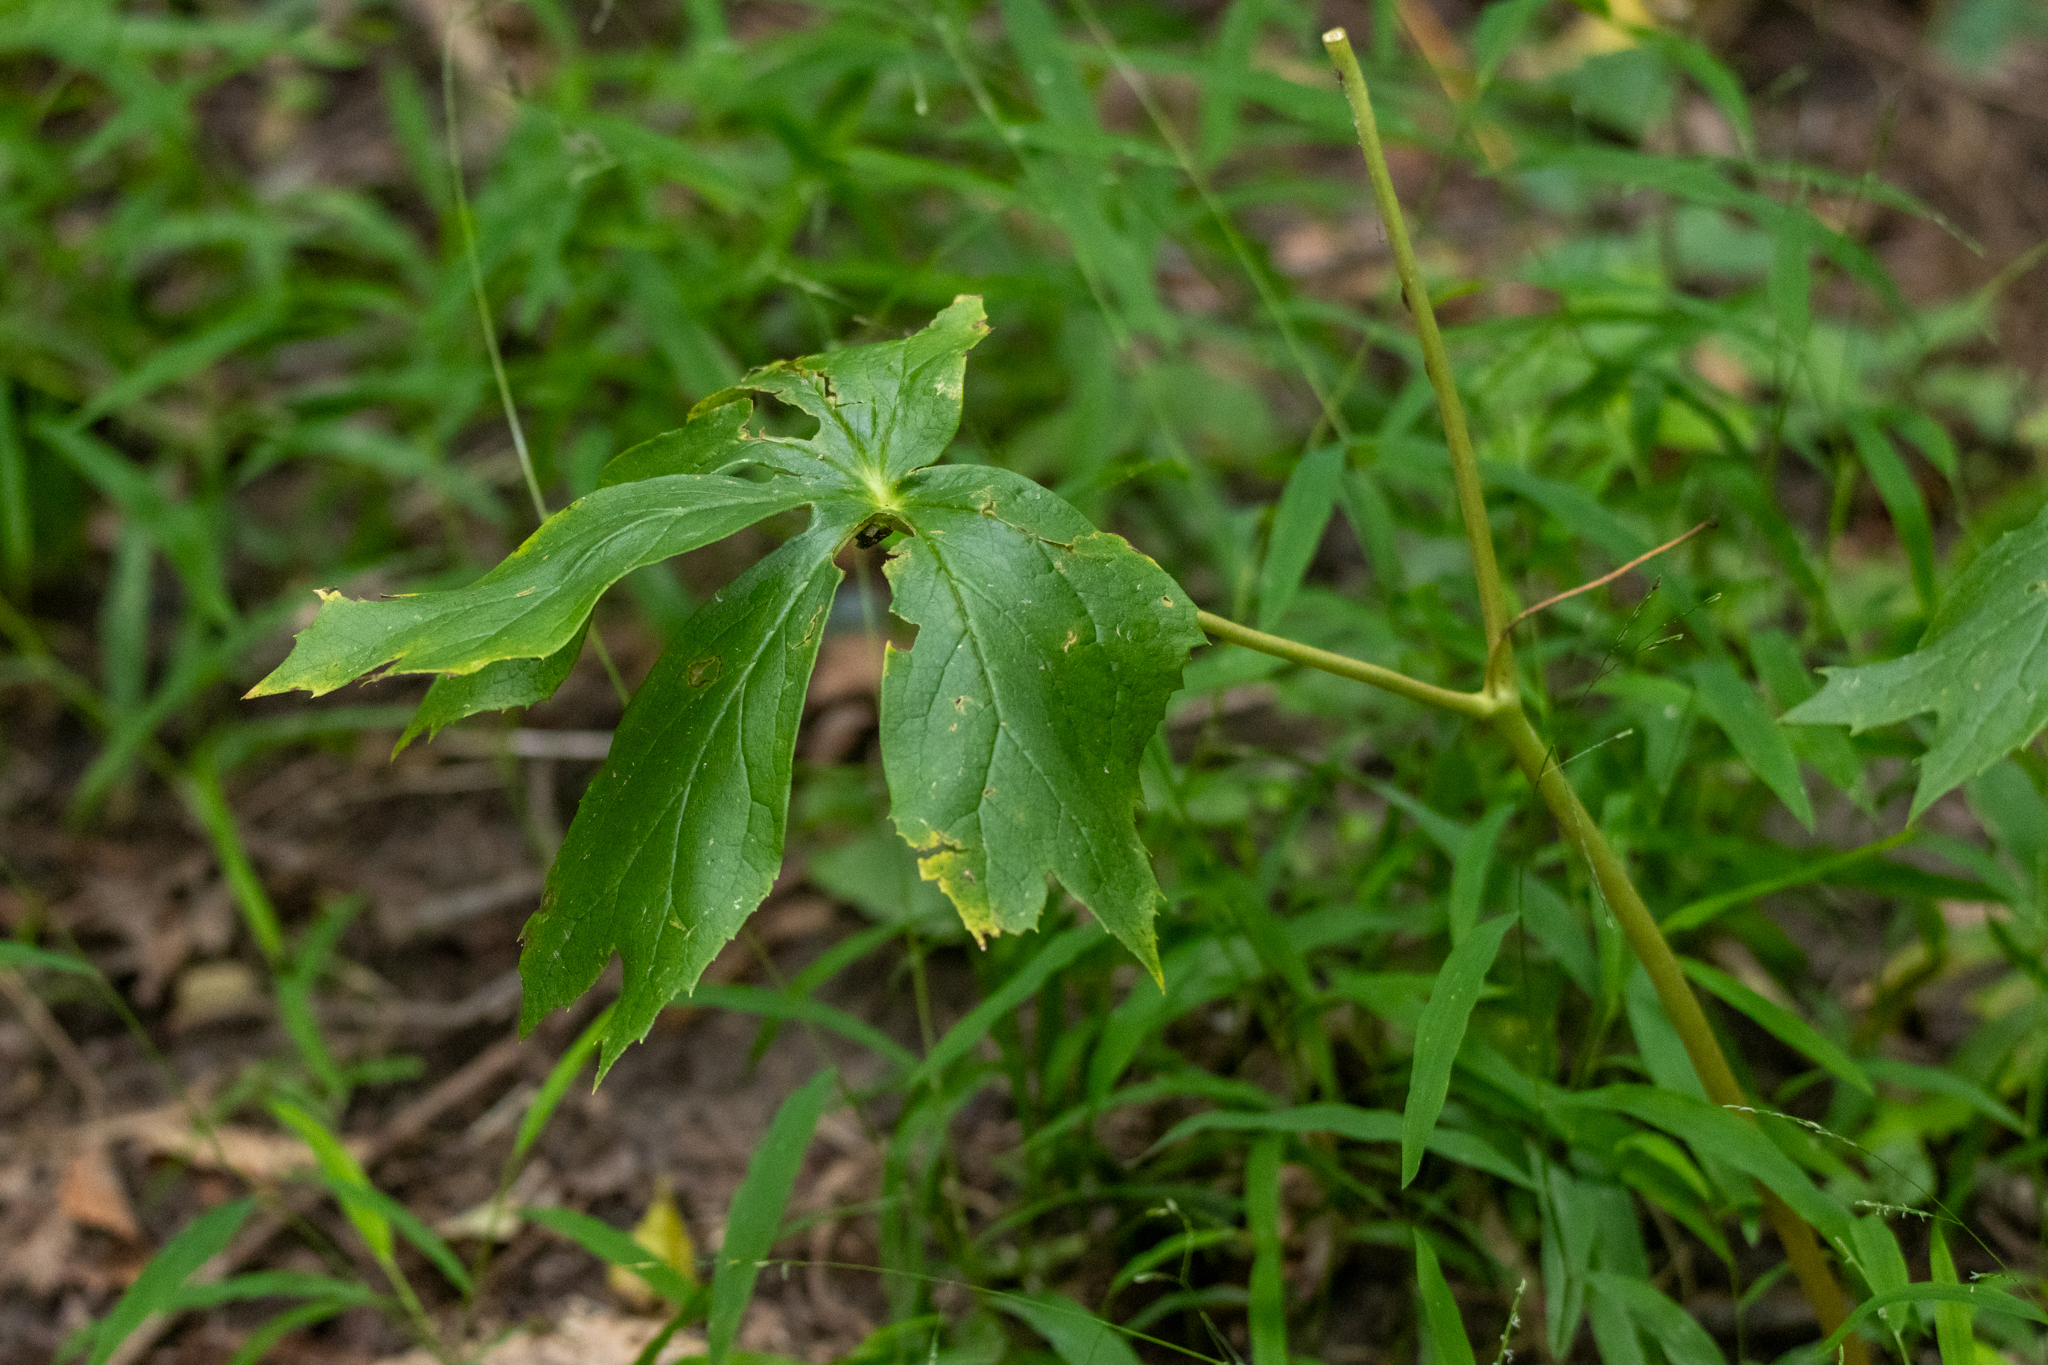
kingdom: Plantae
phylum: Tracheophyta
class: Magnoliopsida
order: Ranunculales
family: Berberidaceae
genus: Podophyllum
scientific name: Podophyllum peltatum
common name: Wild mandrake
